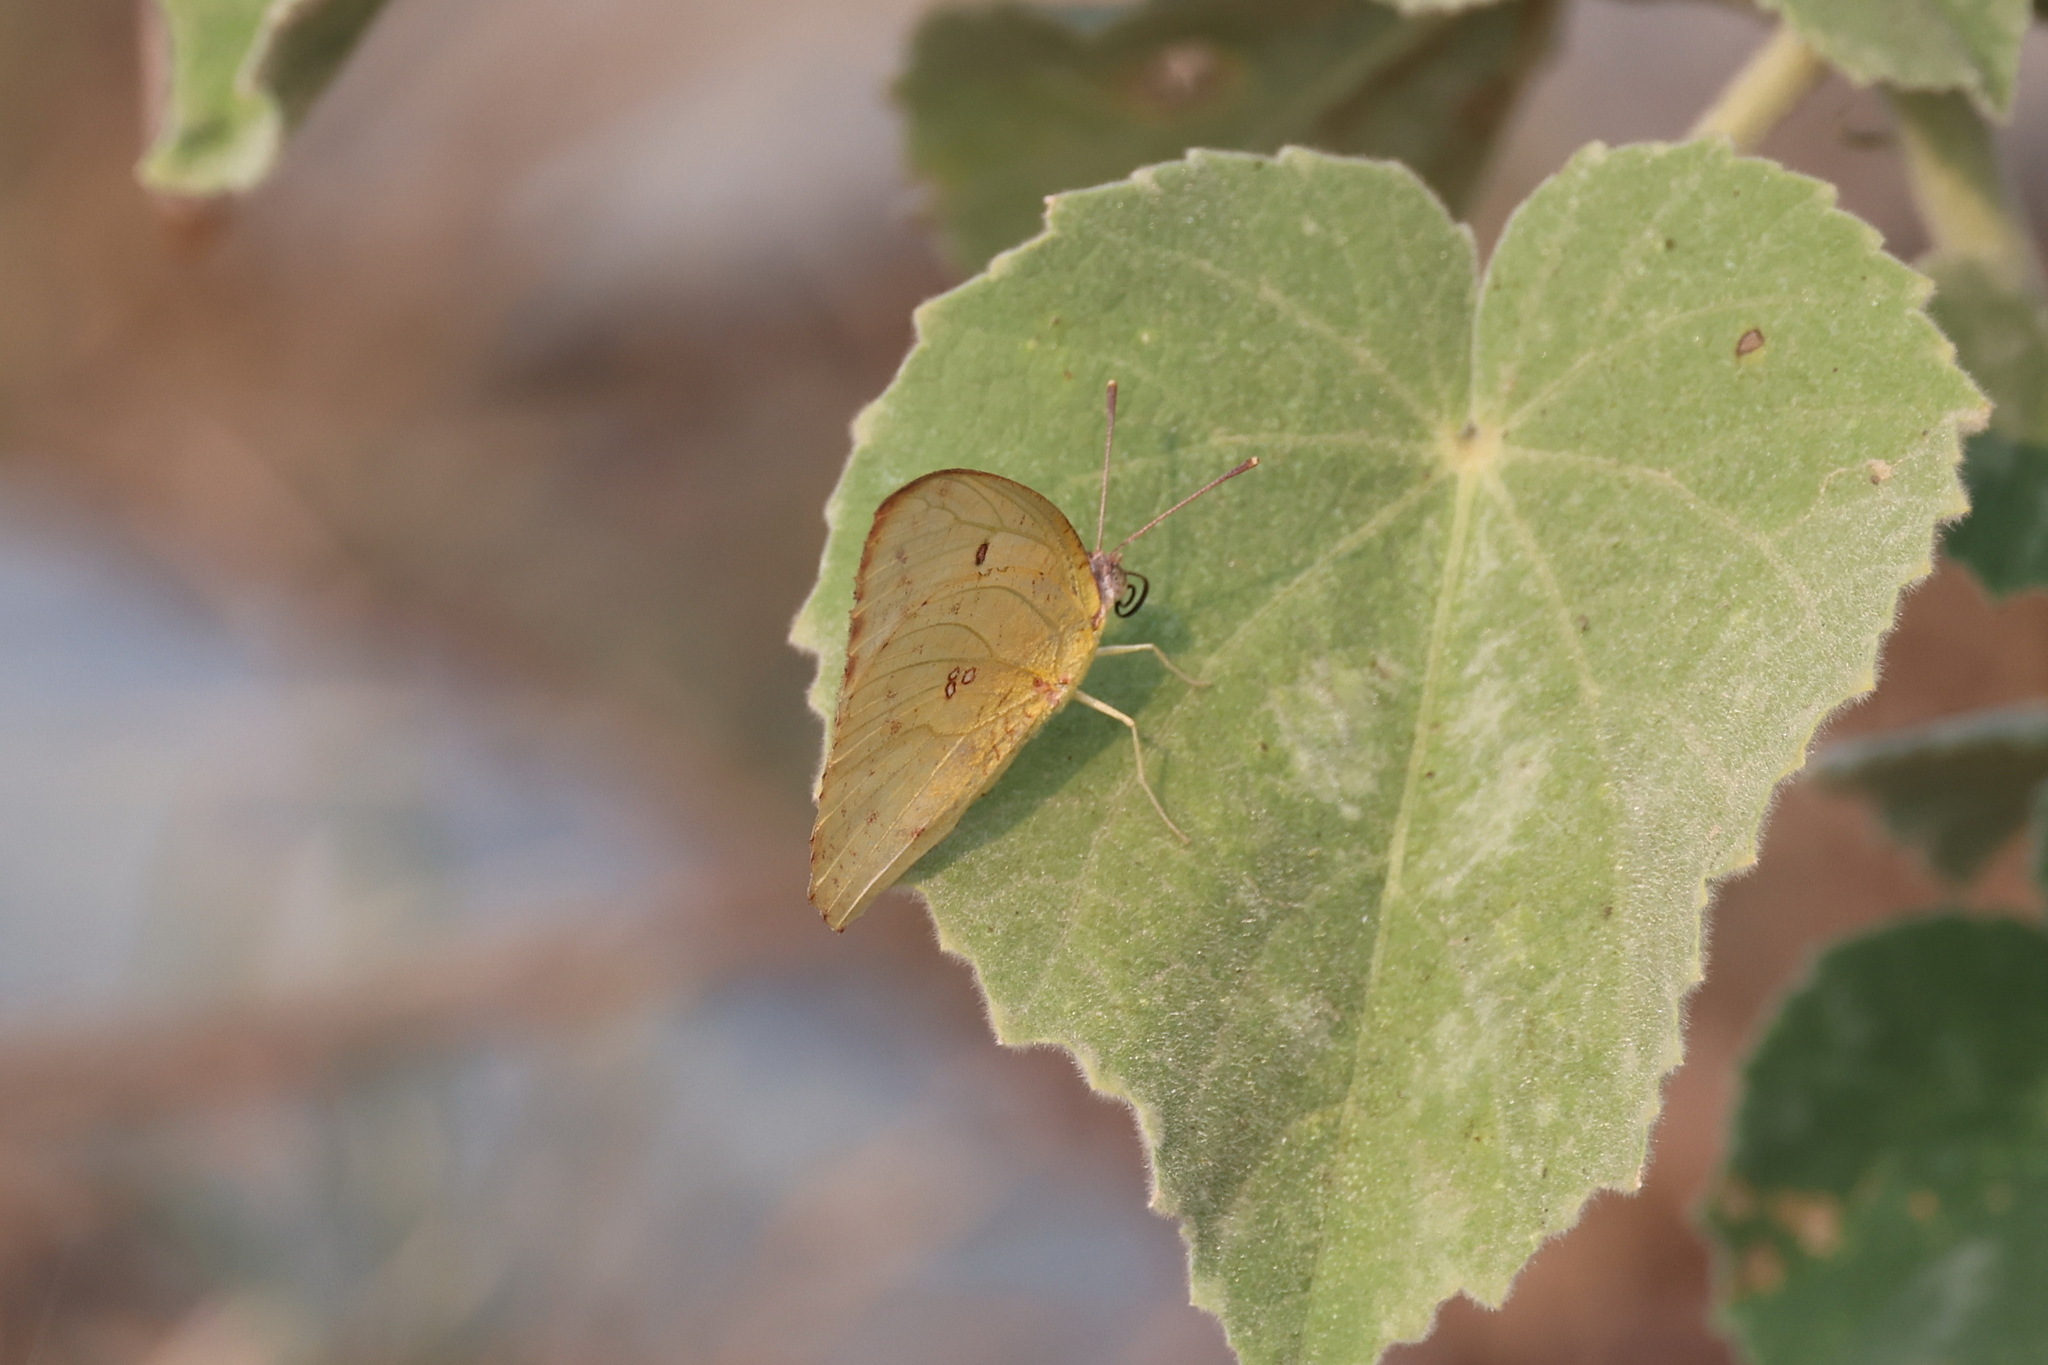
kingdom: Animalia
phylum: Arthropoda
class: Insecta
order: Lepidoptera
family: Pieridae
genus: Catopsilia
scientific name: Catopsilia florella
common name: African migrant
